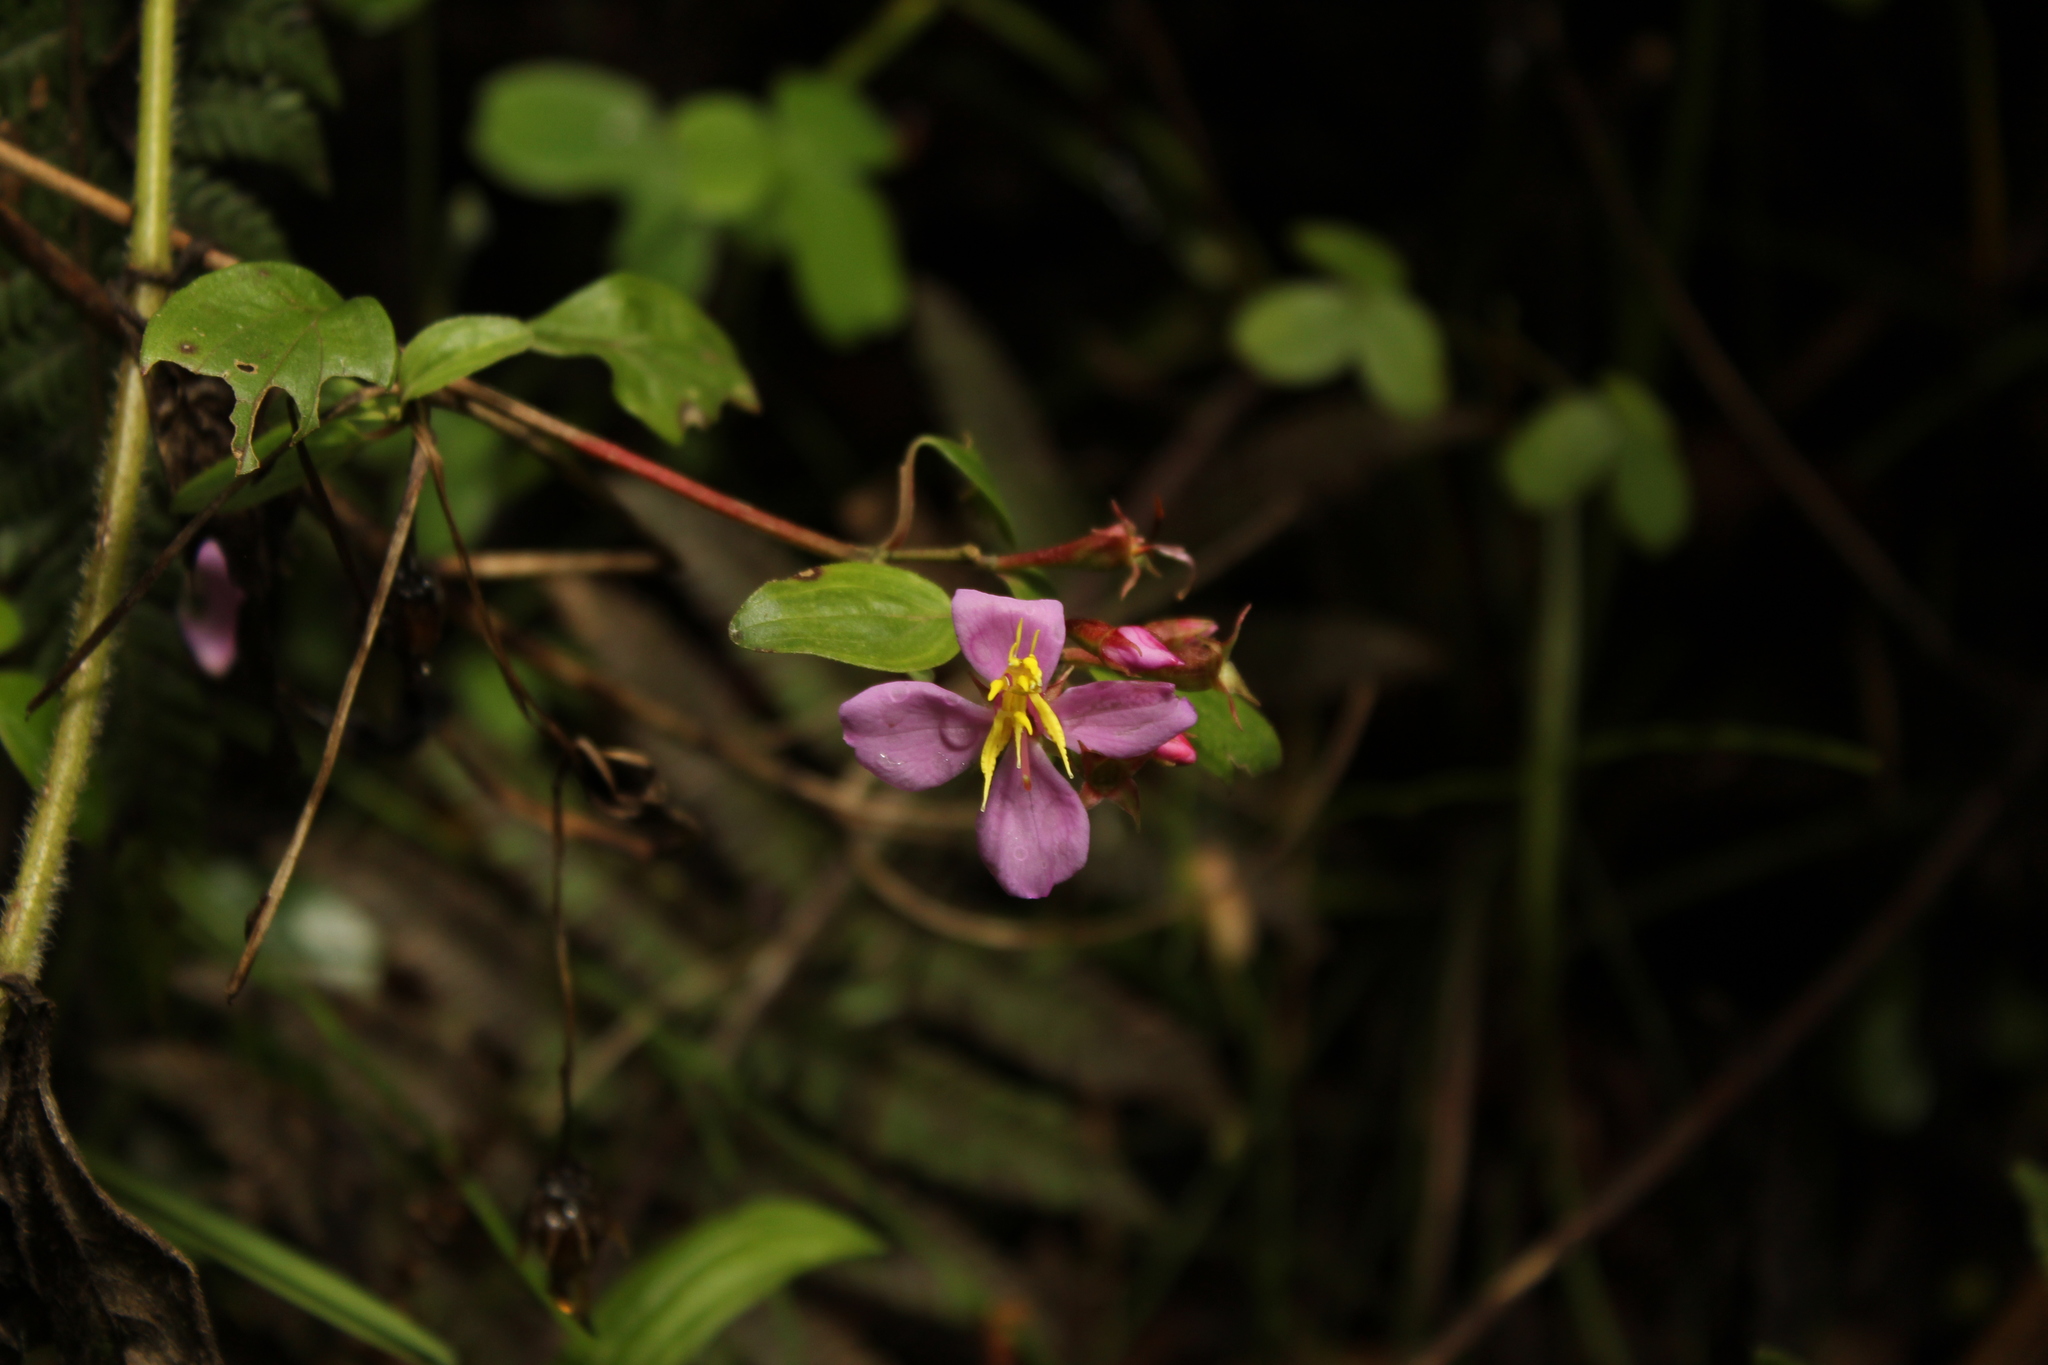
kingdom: Plantae
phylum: Tracheophyta
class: Magnoliopsida
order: Myrtales
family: Melastomataceae
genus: Monochaetum
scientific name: Monochaetum myrtoideum
